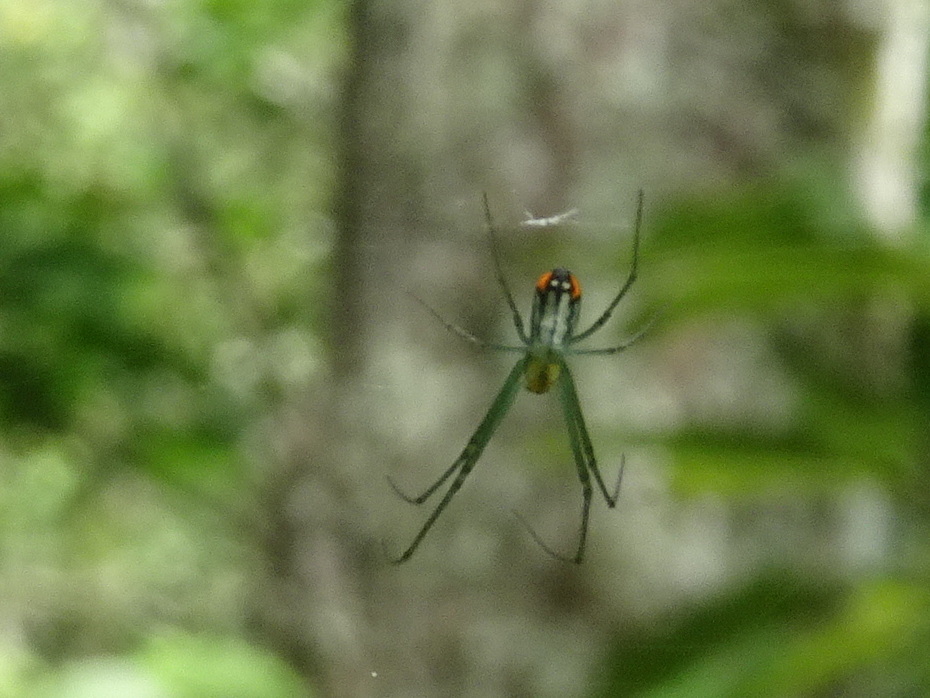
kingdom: Animalia
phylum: Arthropoda
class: Arachnida
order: Araneae
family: Tetragnathidae
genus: Leucauge
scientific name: Leucauge argyrobapta
